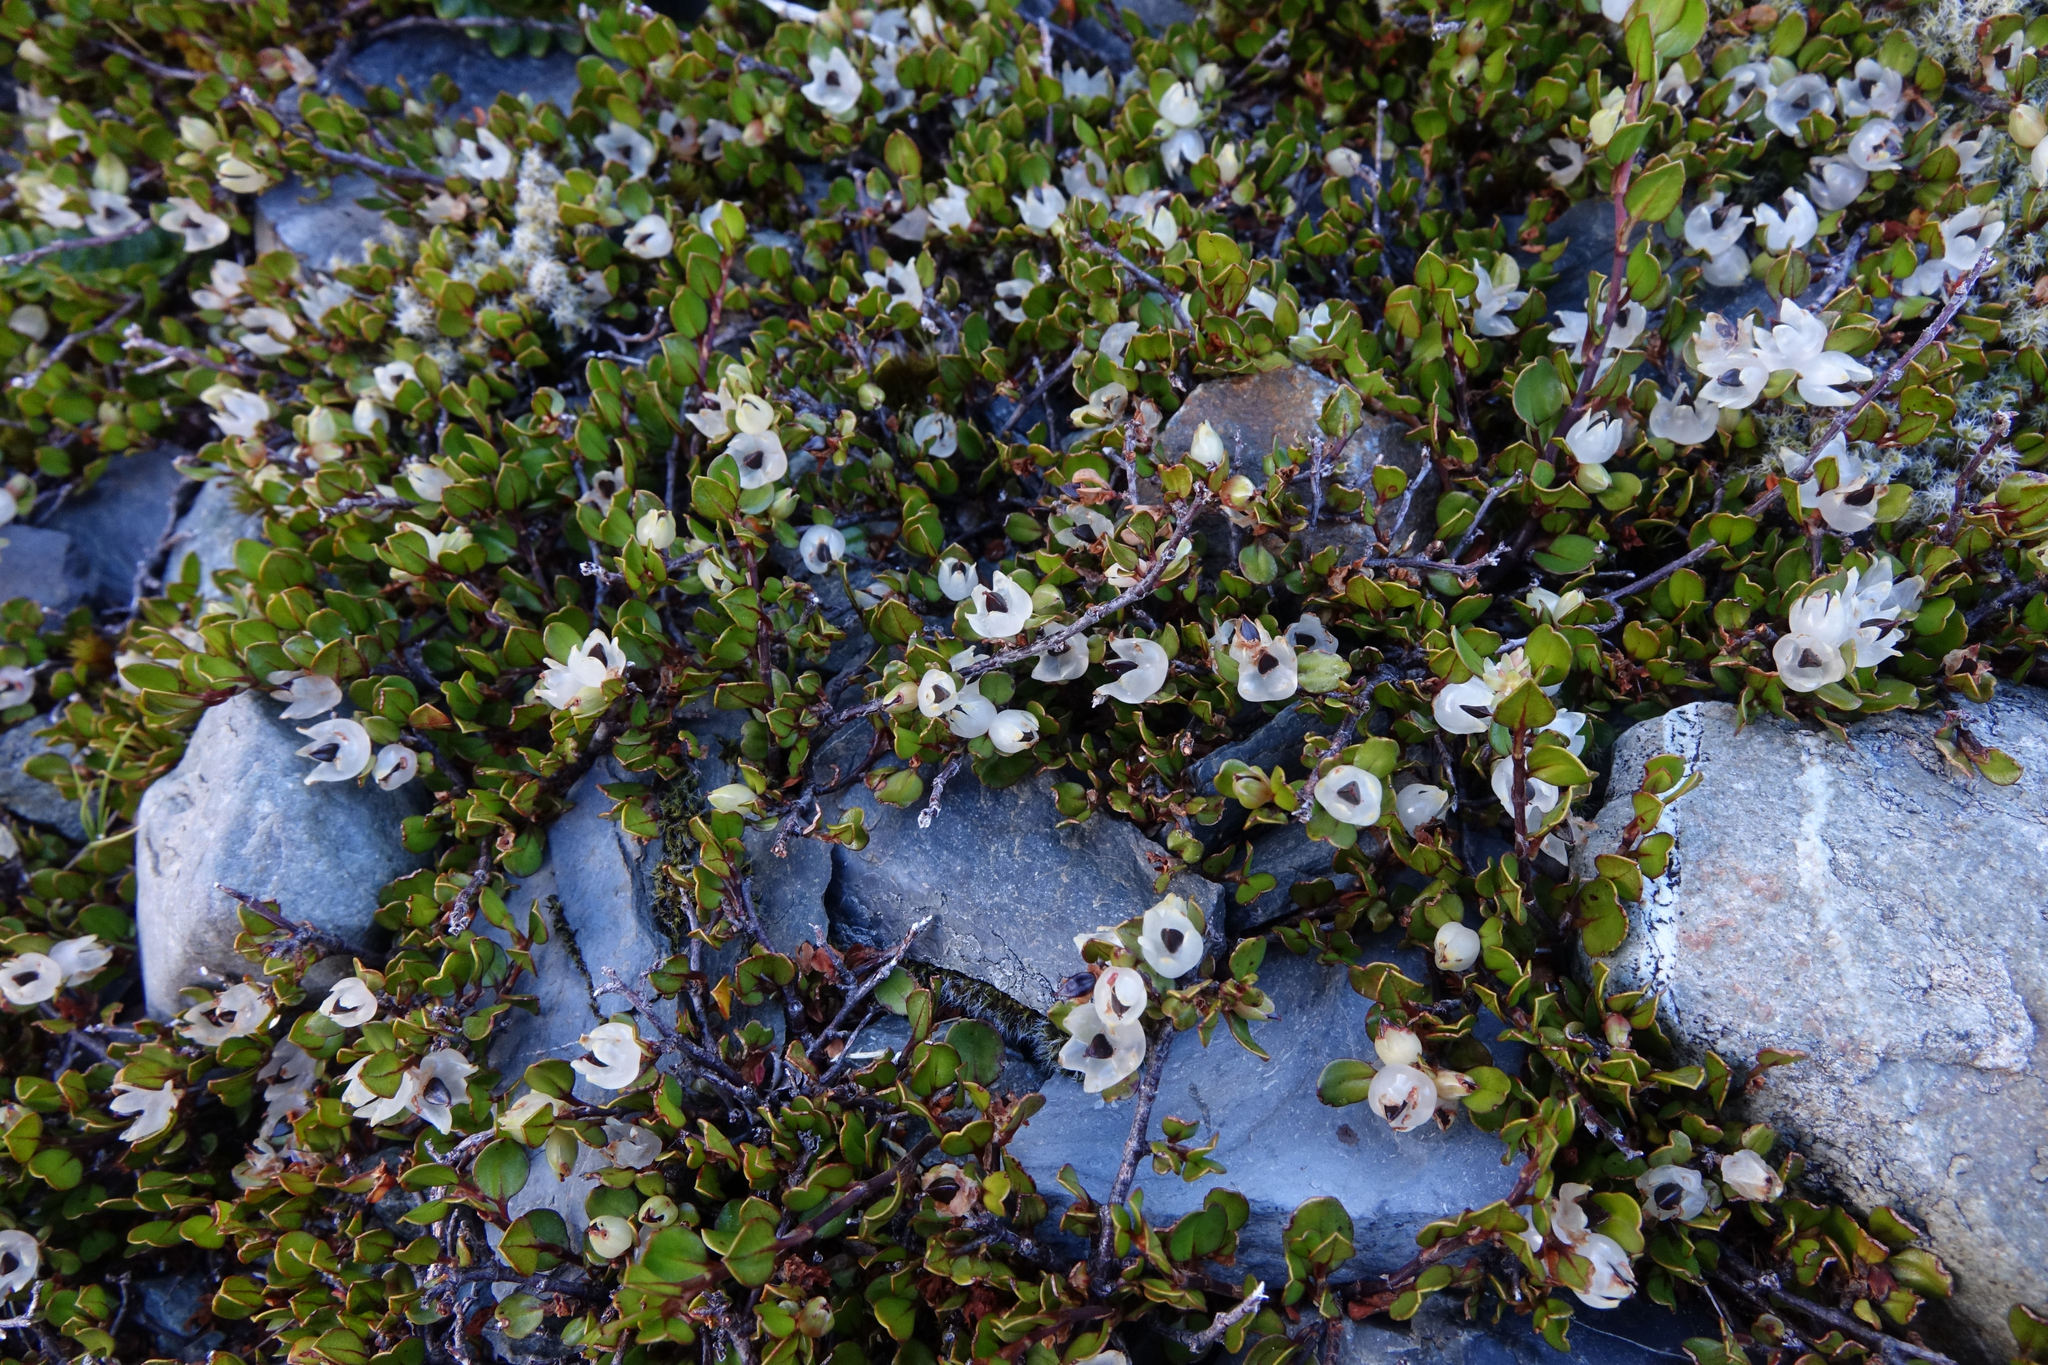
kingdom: Plantae
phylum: Tracheophyta
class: Magnoliopsida
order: Caryophyllales
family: Polygonaceae
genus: Muehlenbeckia
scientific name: Muehlenbeckia axillaris
